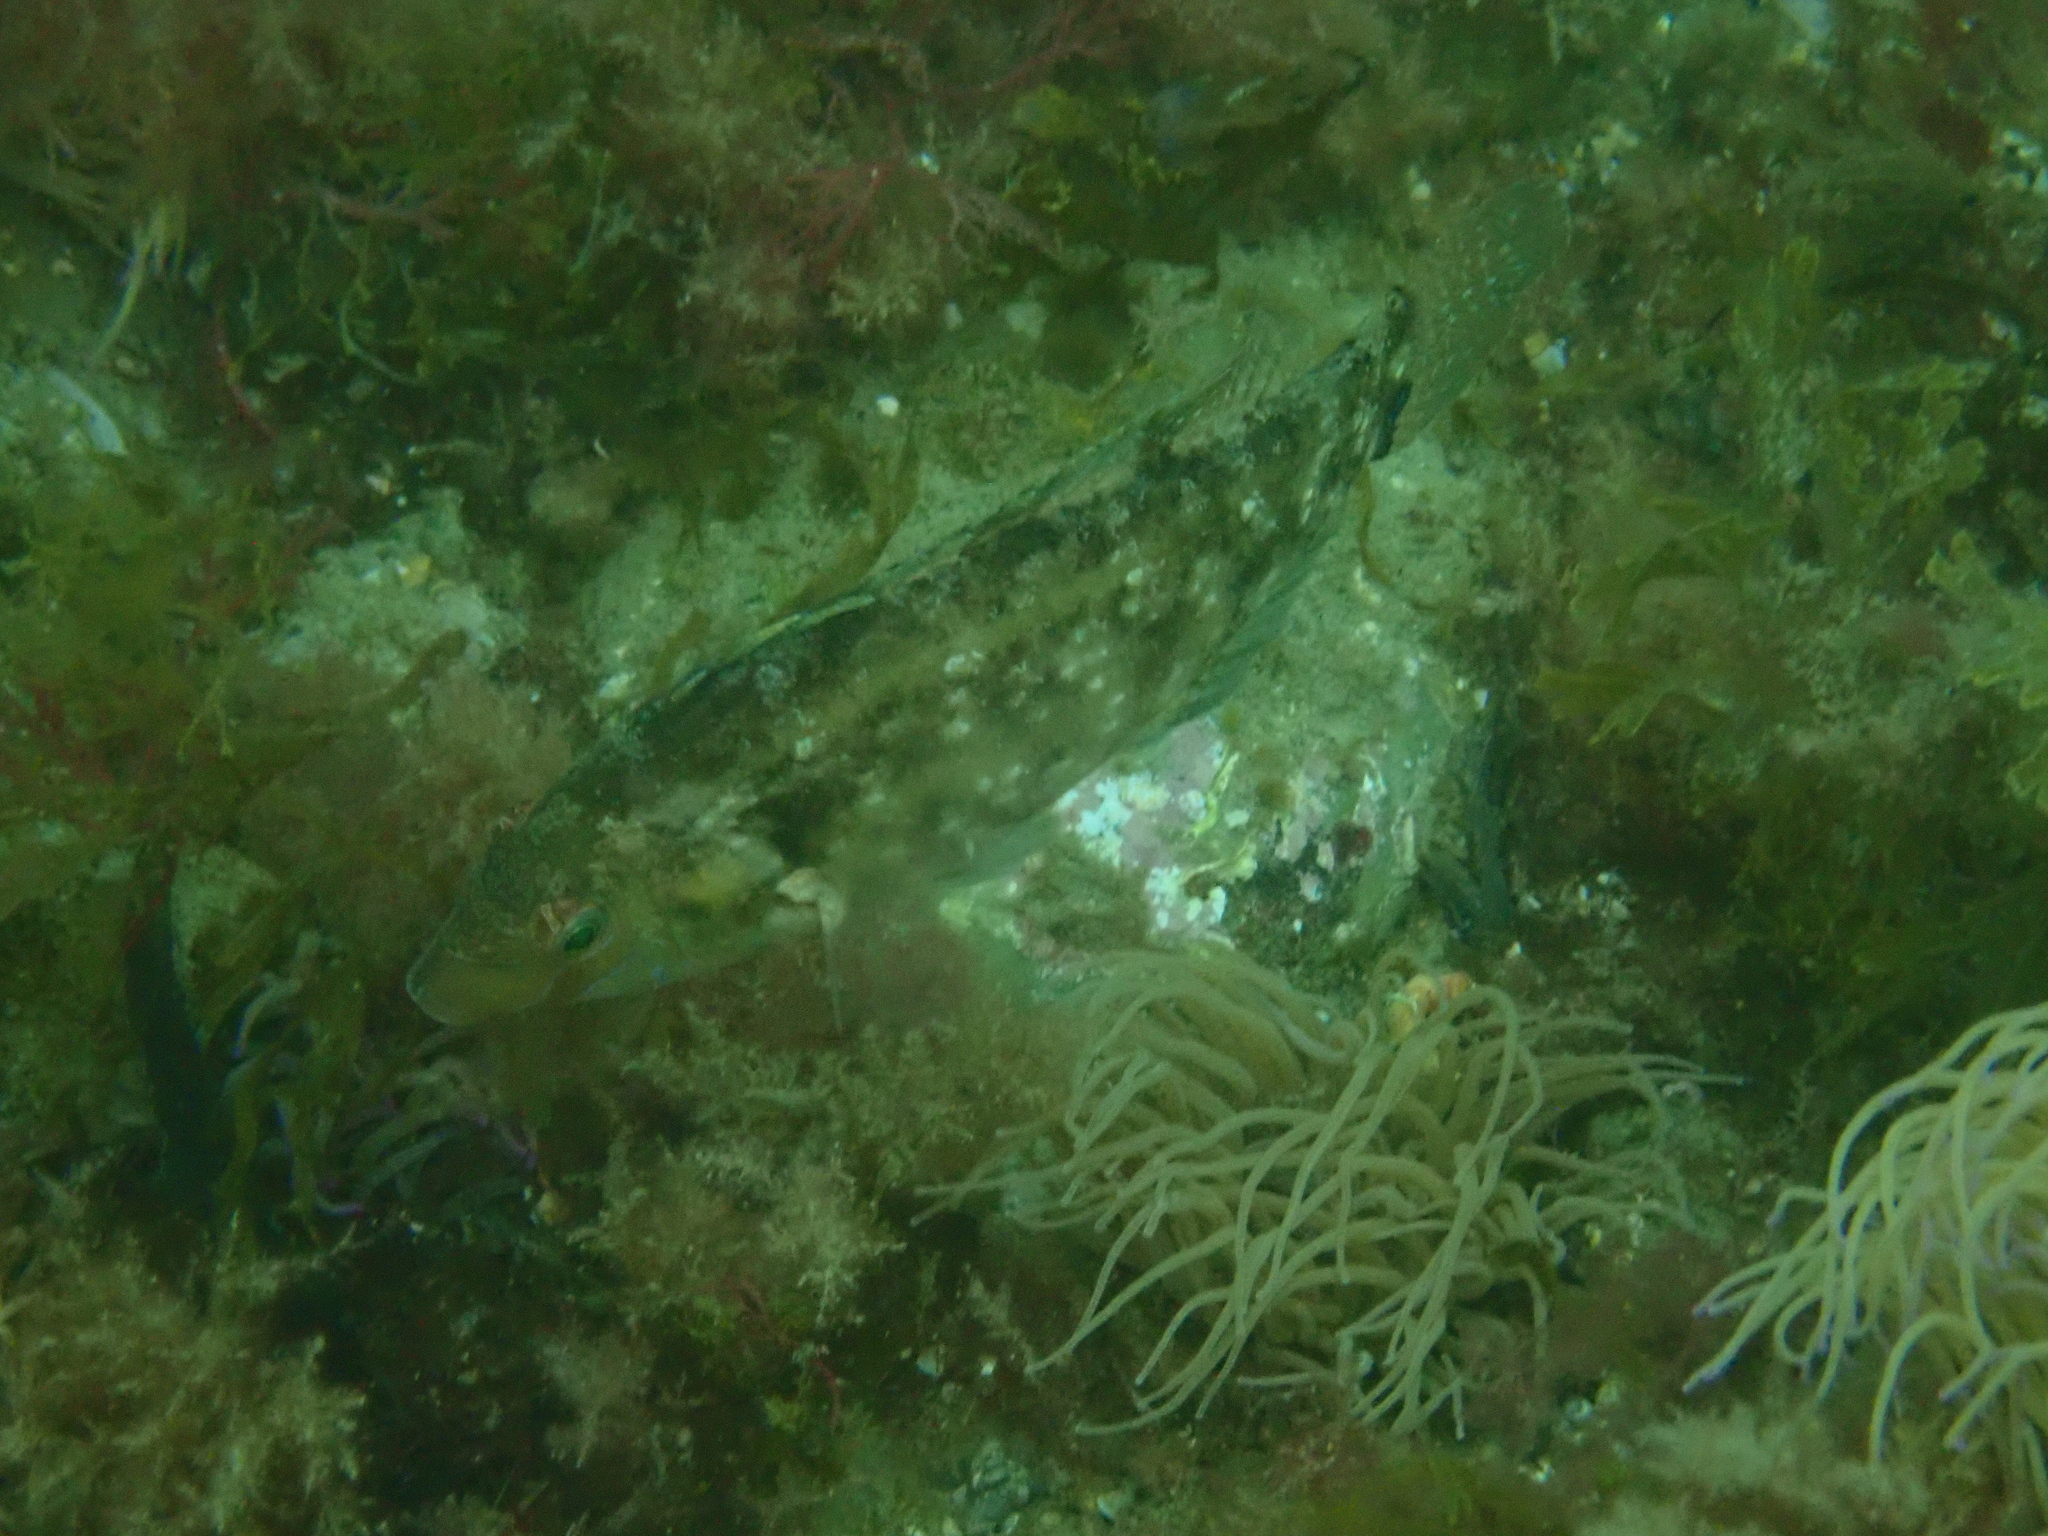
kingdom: Animalia
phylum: Chordata
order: Perciformes
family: Labridae
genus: Symphodus
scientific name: Symphodus cinereus
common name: Grey wrasse
